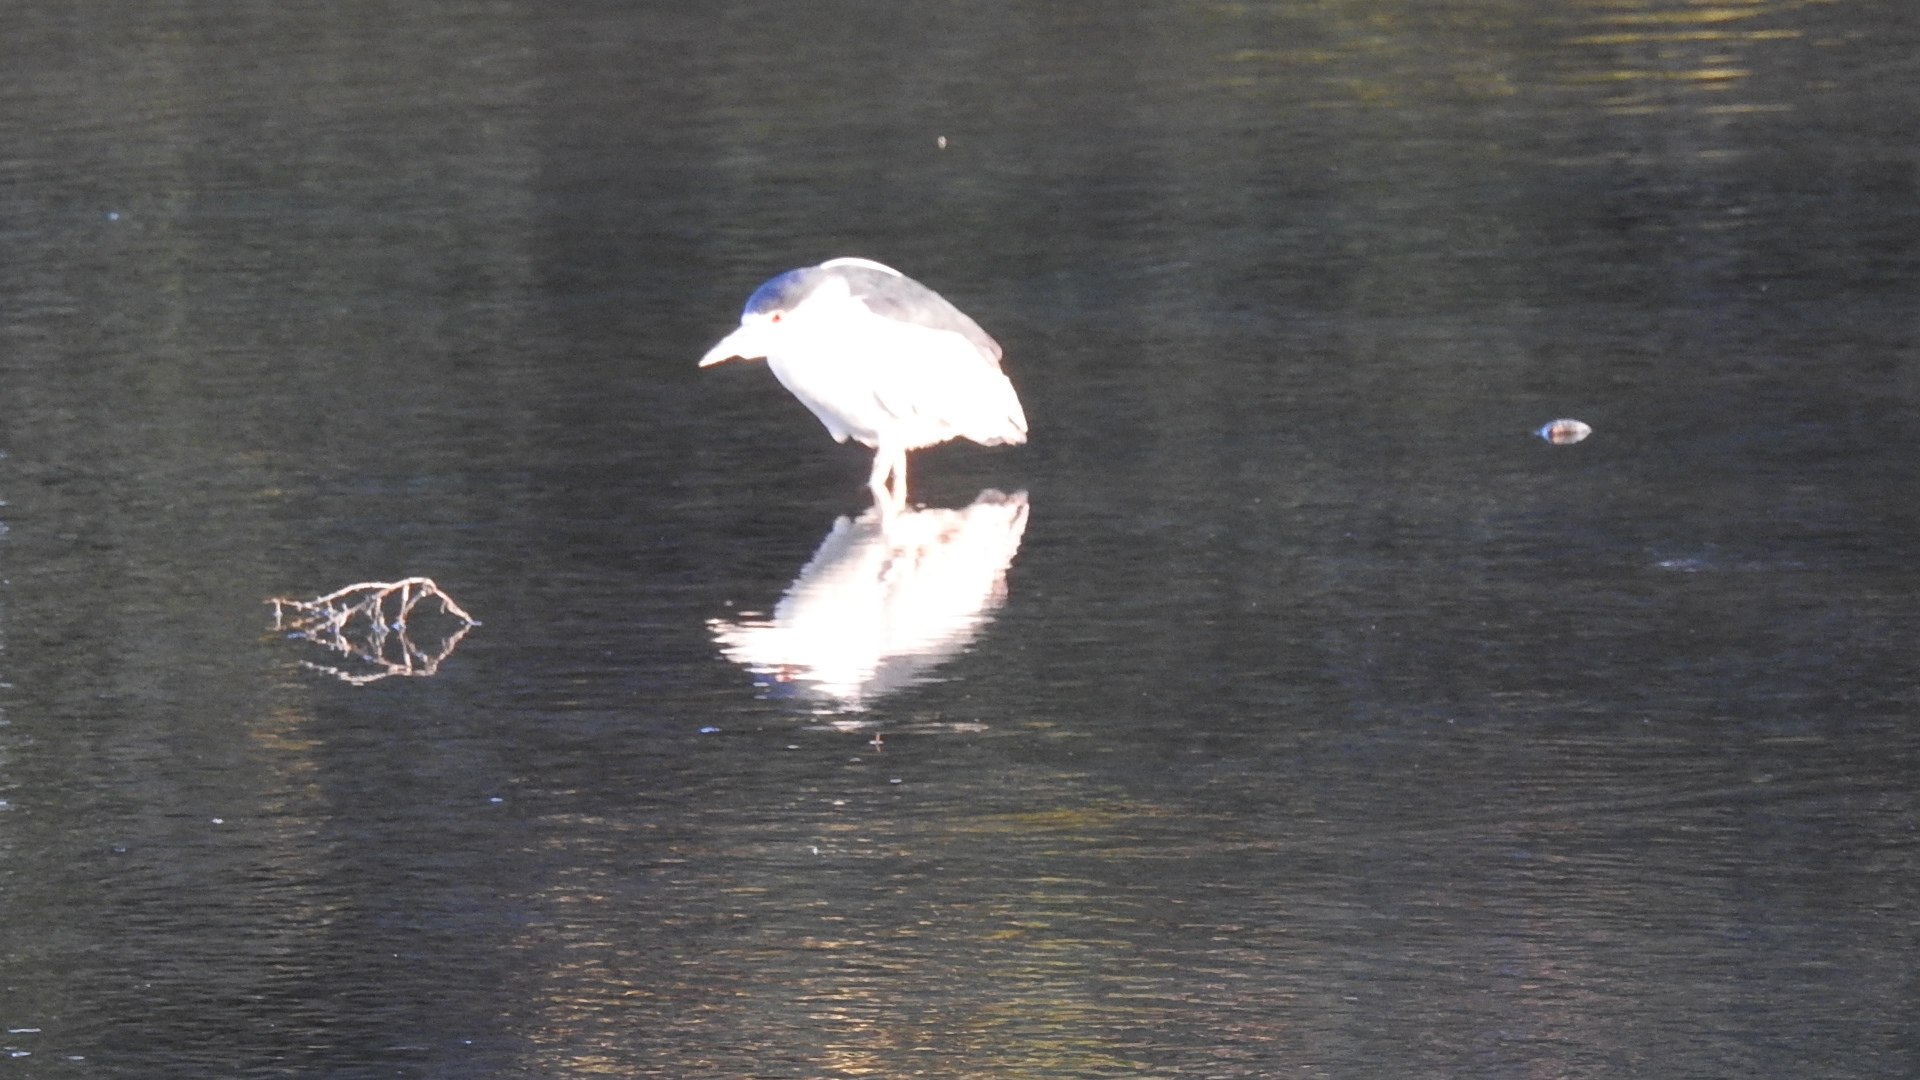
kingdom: Animalia
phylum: Chordata
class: Aves
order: Pelecaniformes
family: Ardeidae
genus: Nycticorax
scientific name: Nycticorax nycticorax
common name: Black-crowned night heron
